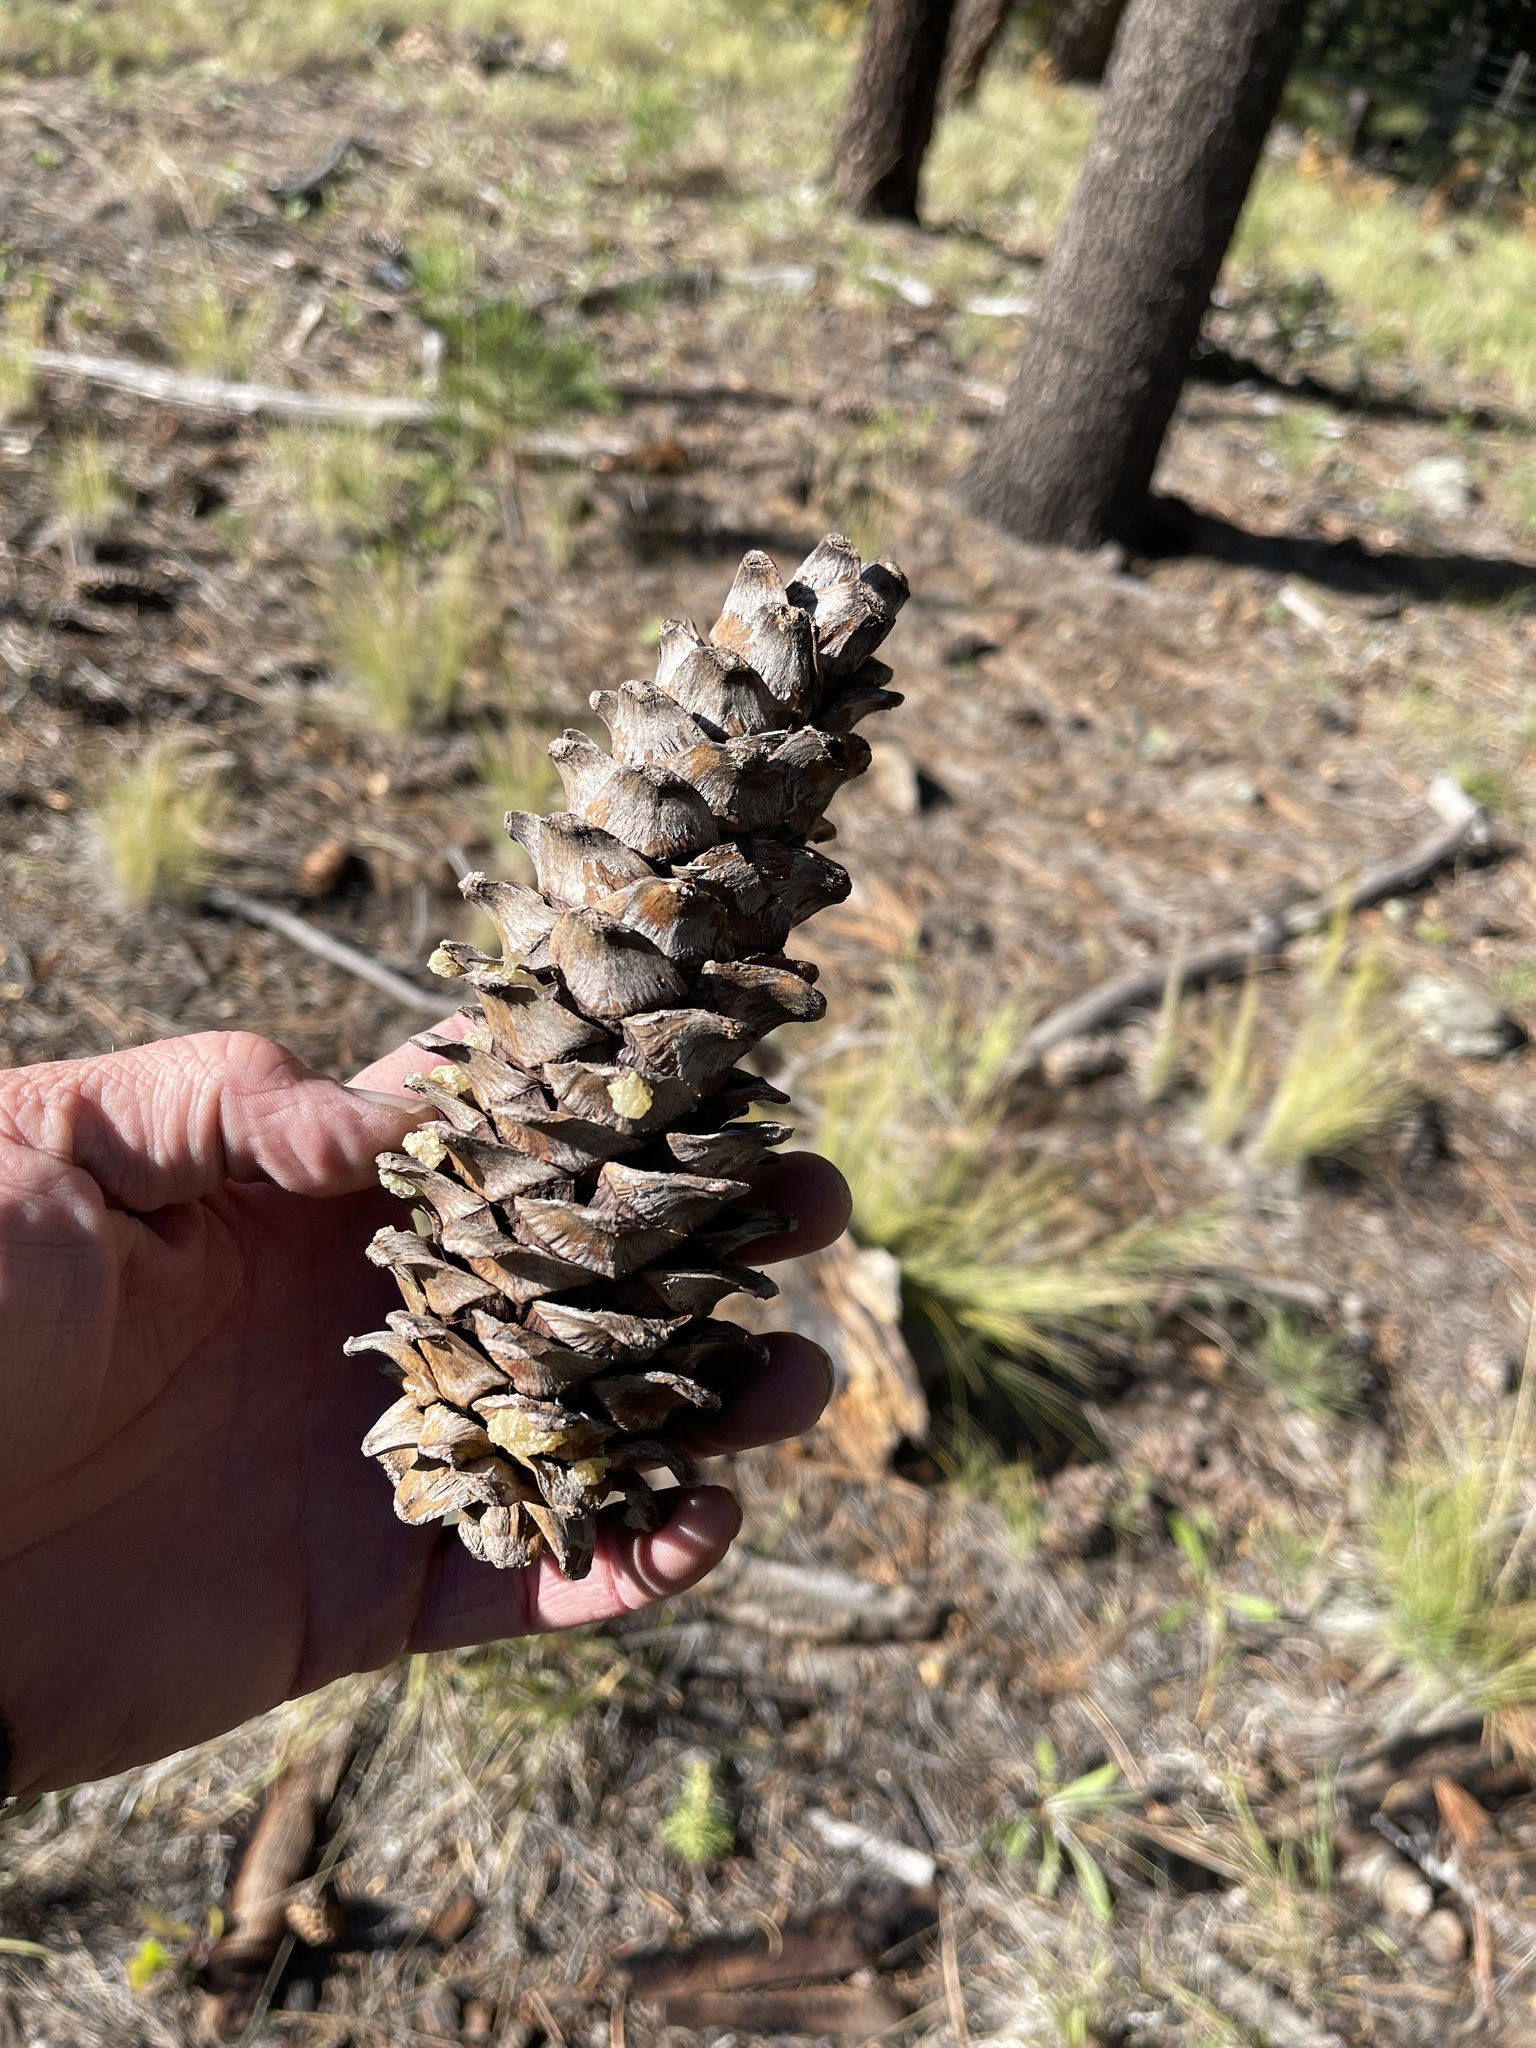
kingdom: Plantae
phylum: Tracheophyta
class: Pinopsida
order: Pinales
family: Pinaceae
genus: Pinus
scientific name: Pinus strobiformis
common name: Southwestern white pine
